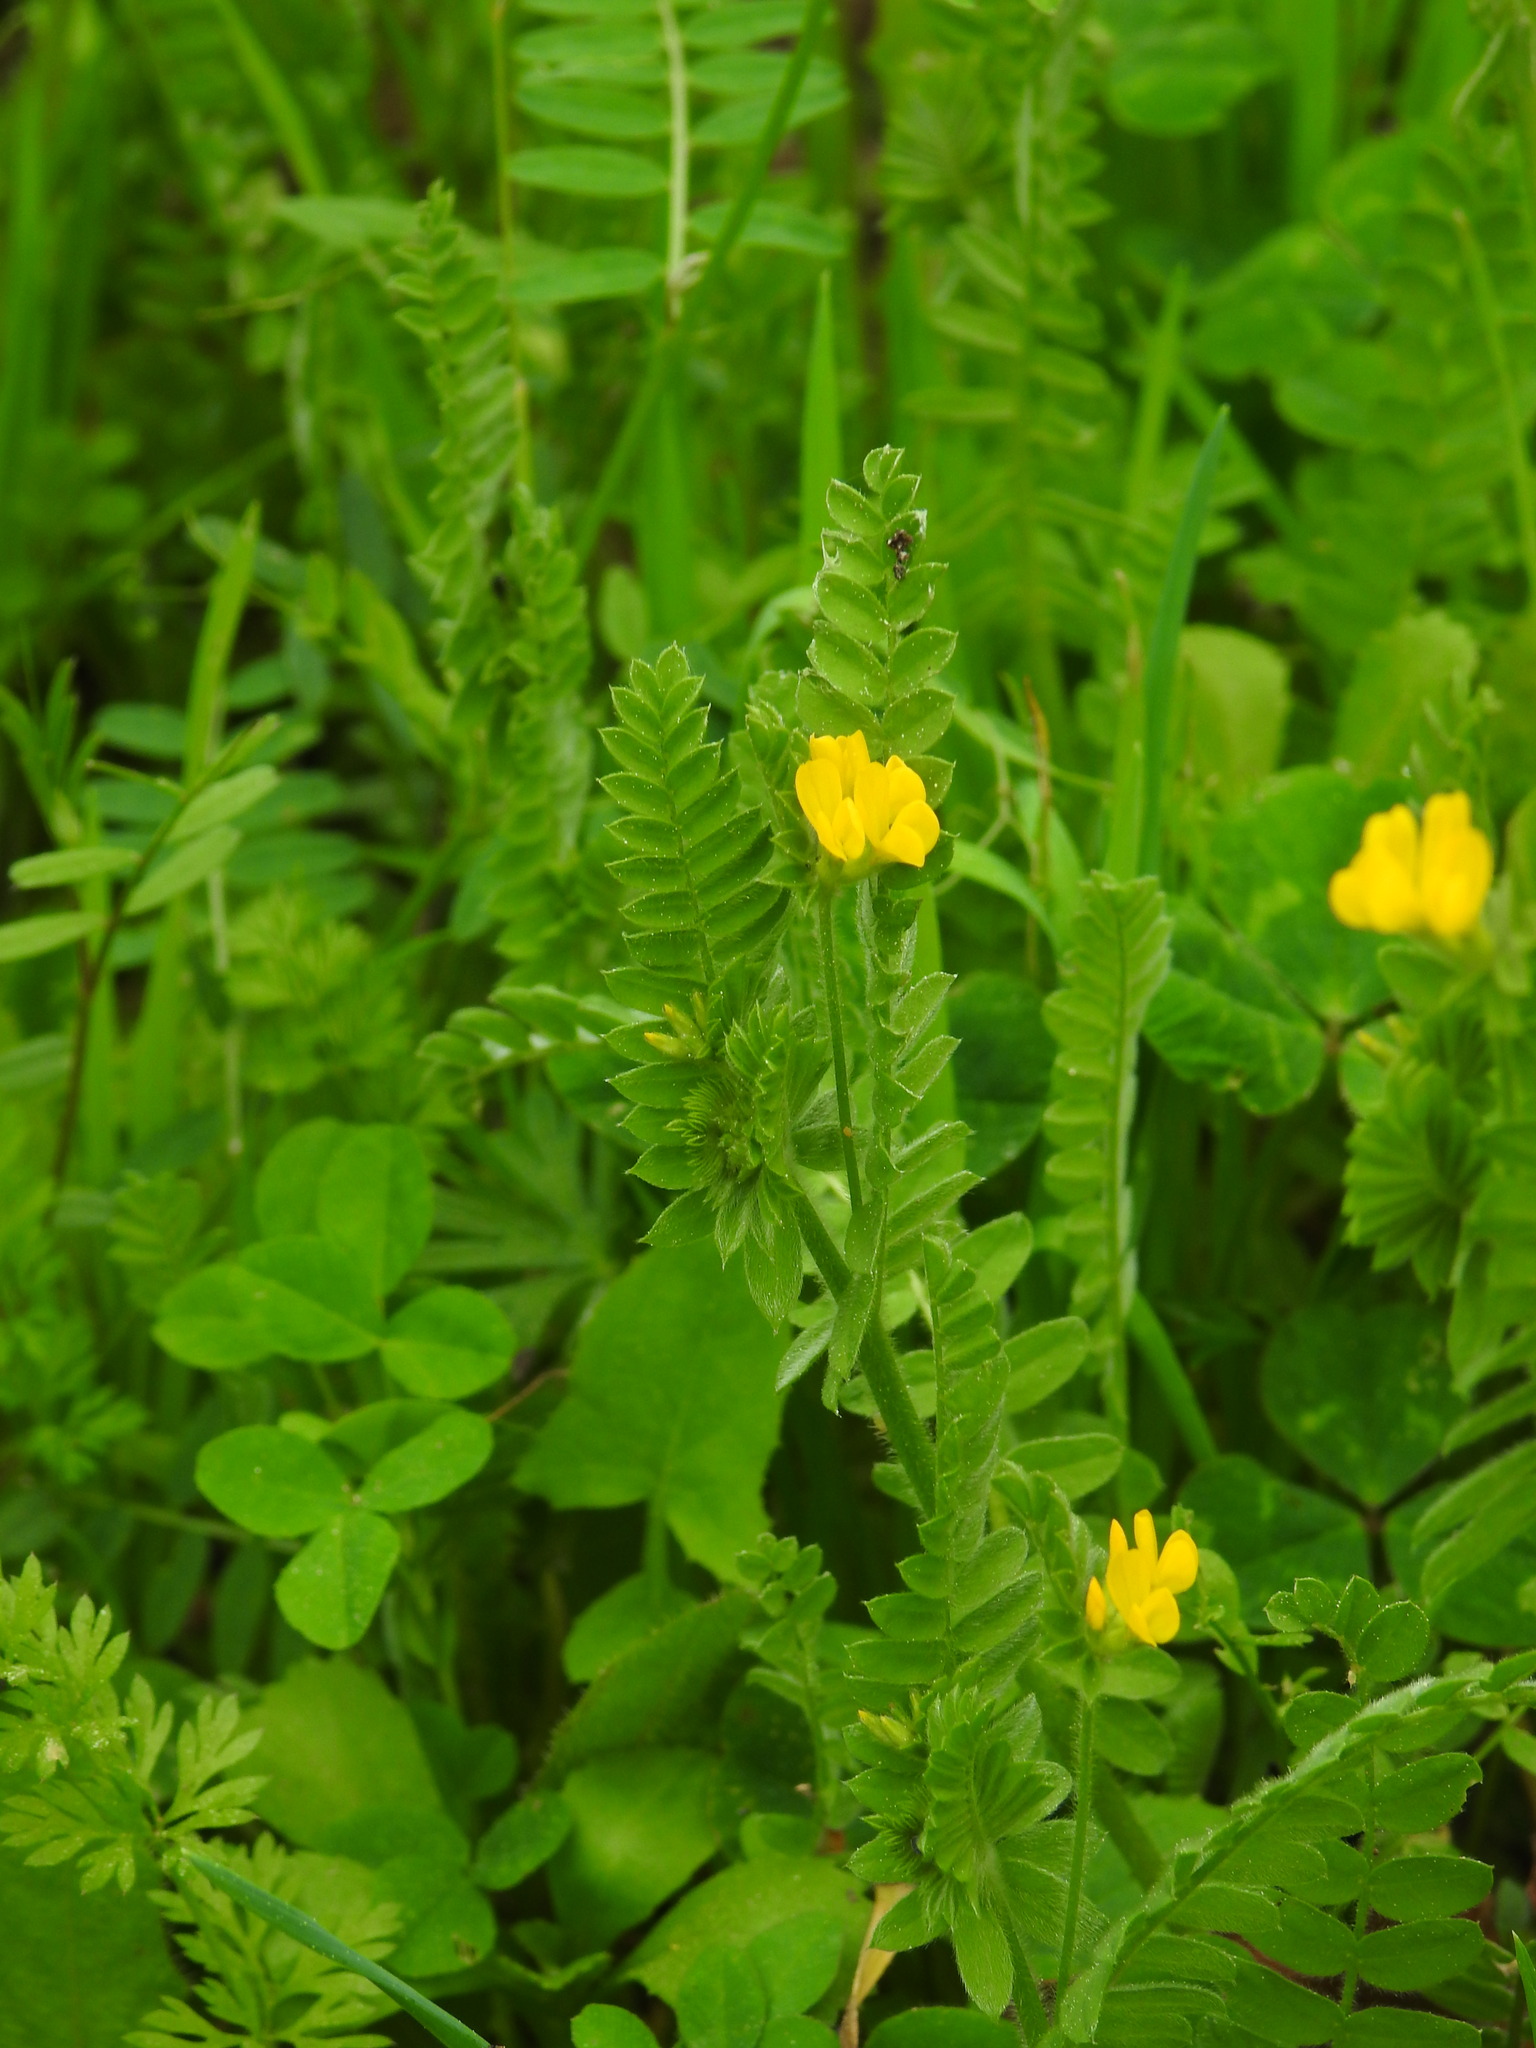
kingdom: Plantae
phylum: Tracheophyta
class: Magnoliopsida
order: Fabales
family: Fabaceae
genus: Ornithopus
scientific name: Ornithopus compressus
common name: Yellow serradella
